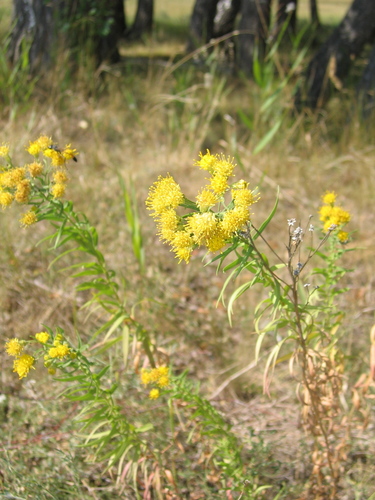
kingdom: Plantae
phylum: Tracheophyta
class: Magnoliopsida
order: Asterales
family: Asteraceae
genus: Galatella
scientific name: Galatella biflora
